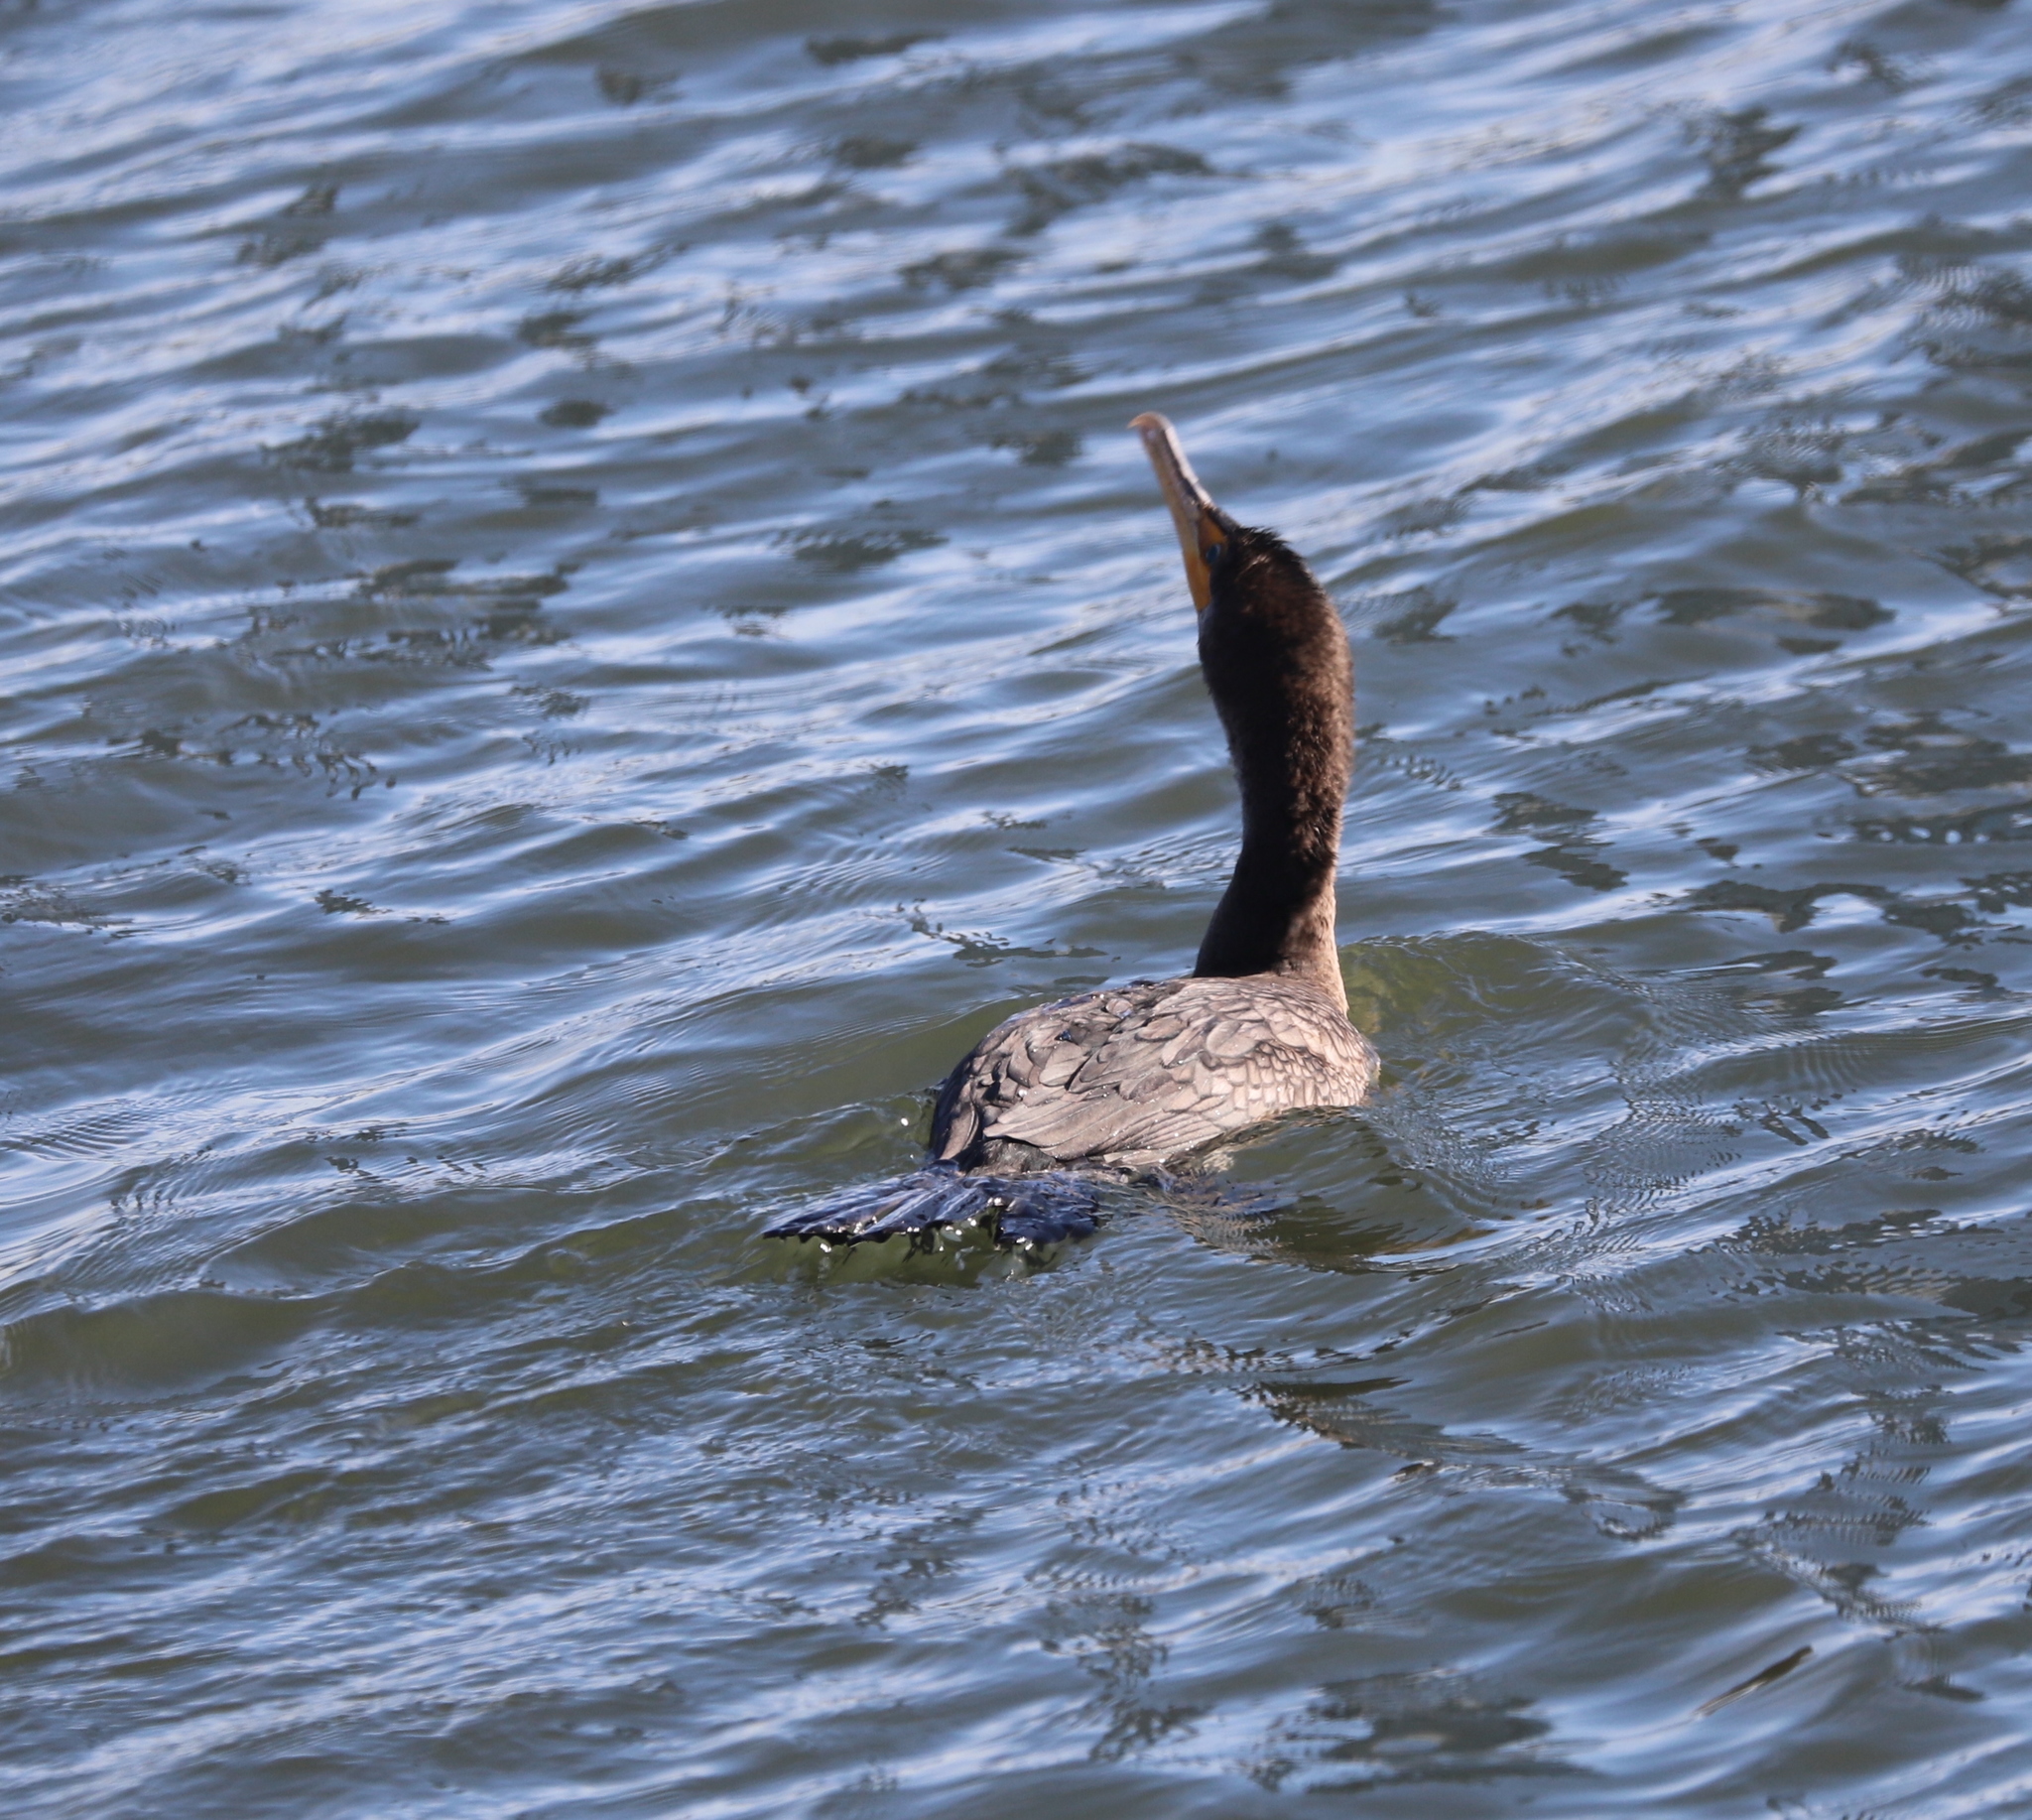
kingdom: Animalia
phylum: Chordata
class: Aves
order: Suliformes
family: Phalacrocoracidae
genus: Phalacrocorax
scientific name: Phalacrocorax auritus
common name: Double-crested cormorant
